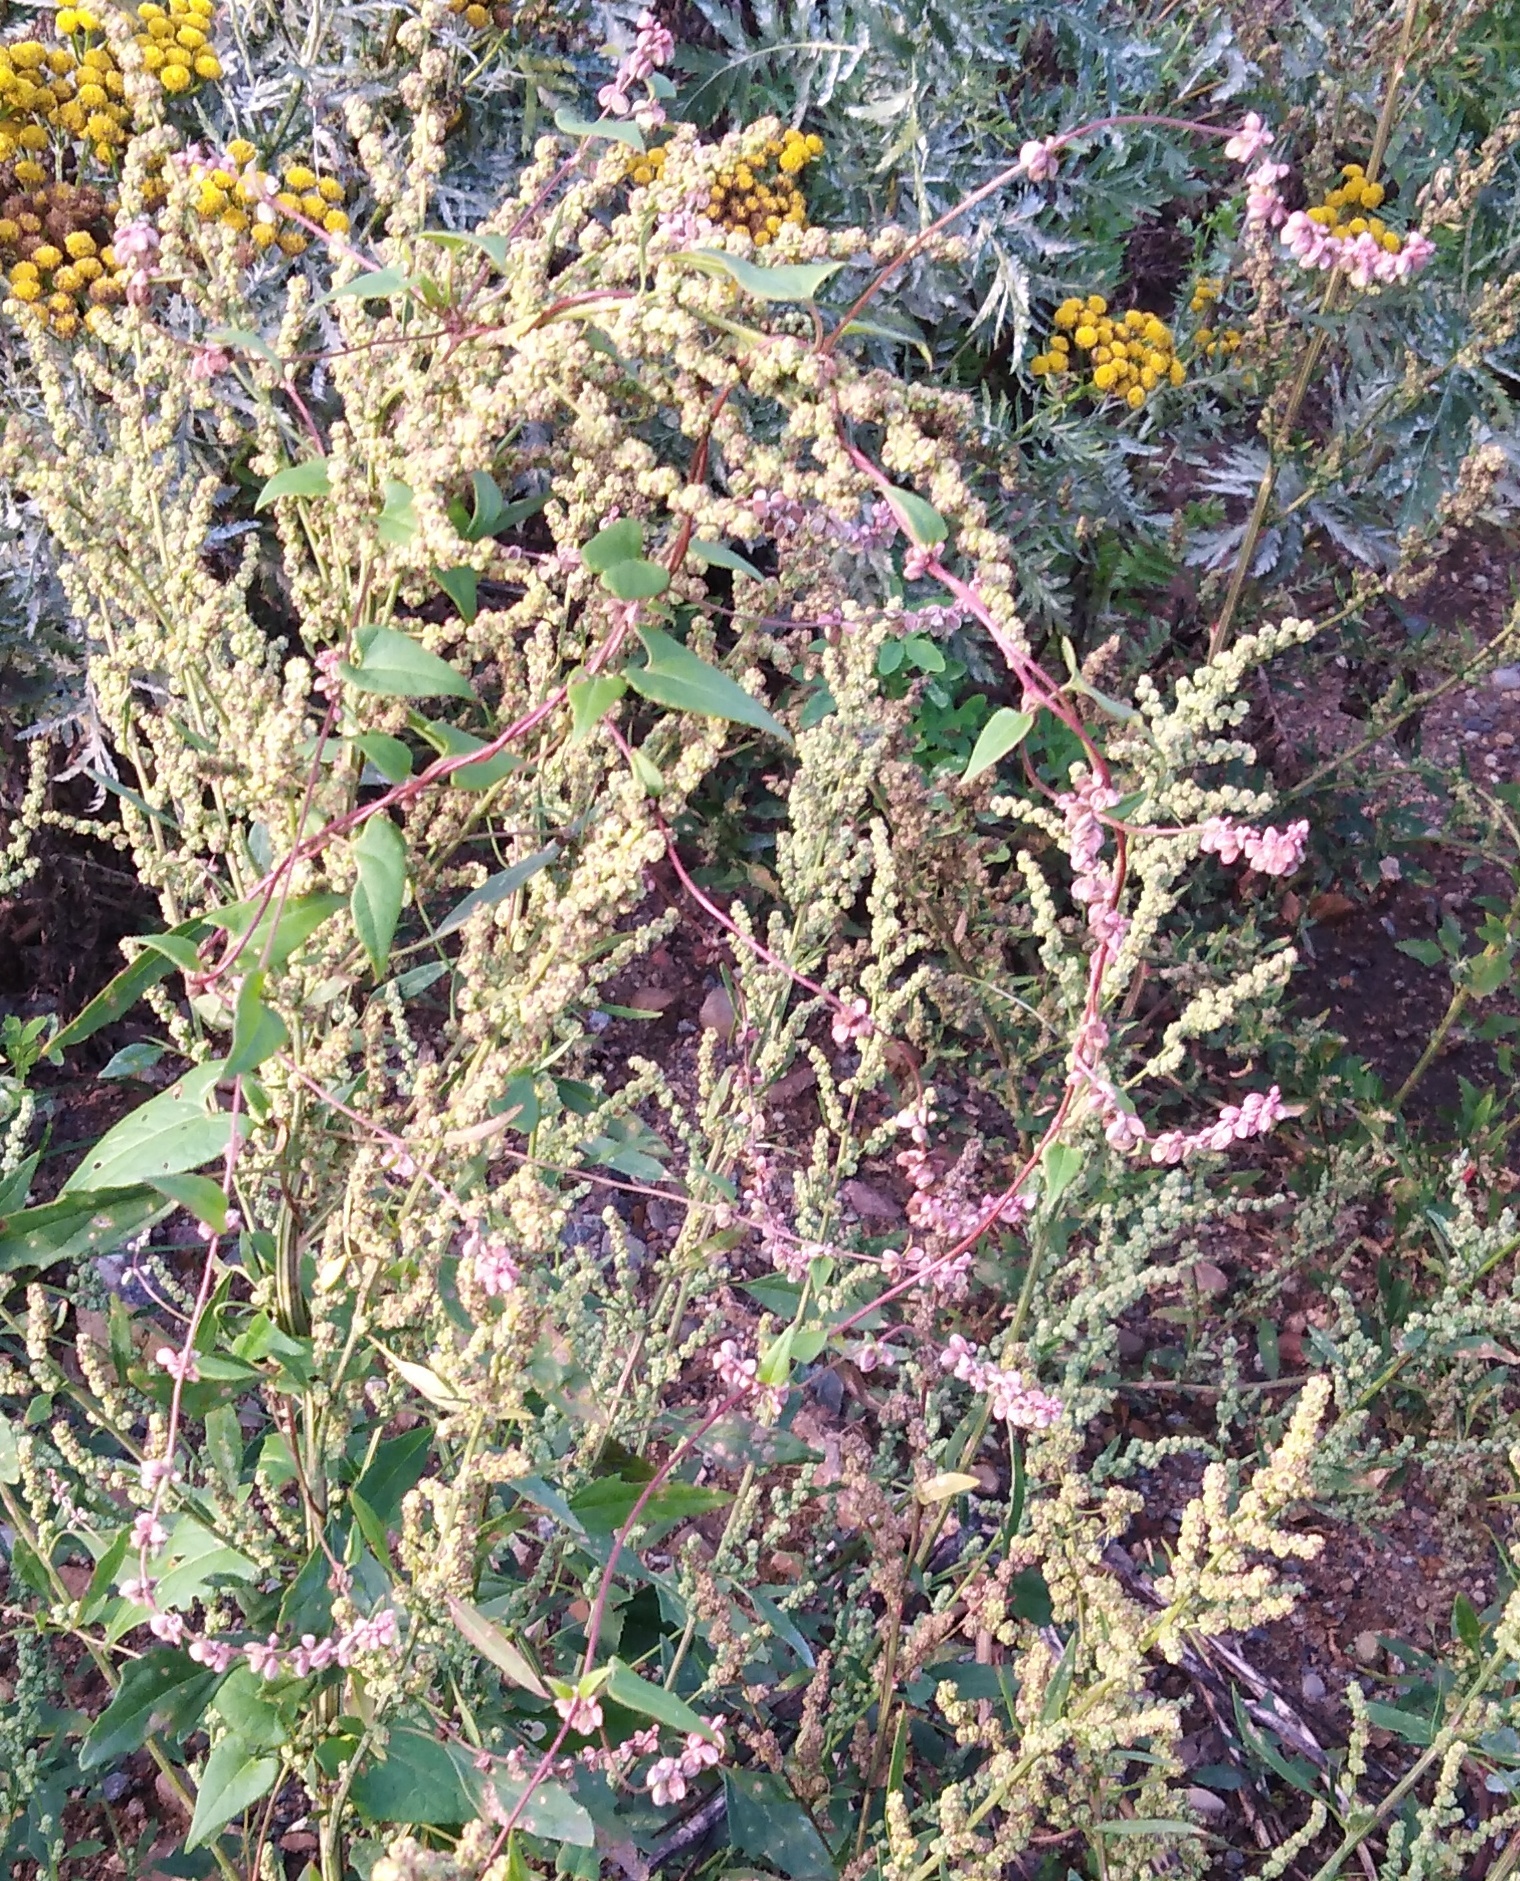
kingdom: Plantae
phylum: Tracheophyta
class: Magnoliopsida
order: Caryophyllales
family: Polygonaceae
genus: Fallopia
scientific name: Fallopia convolvulus
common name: Black bindweed
